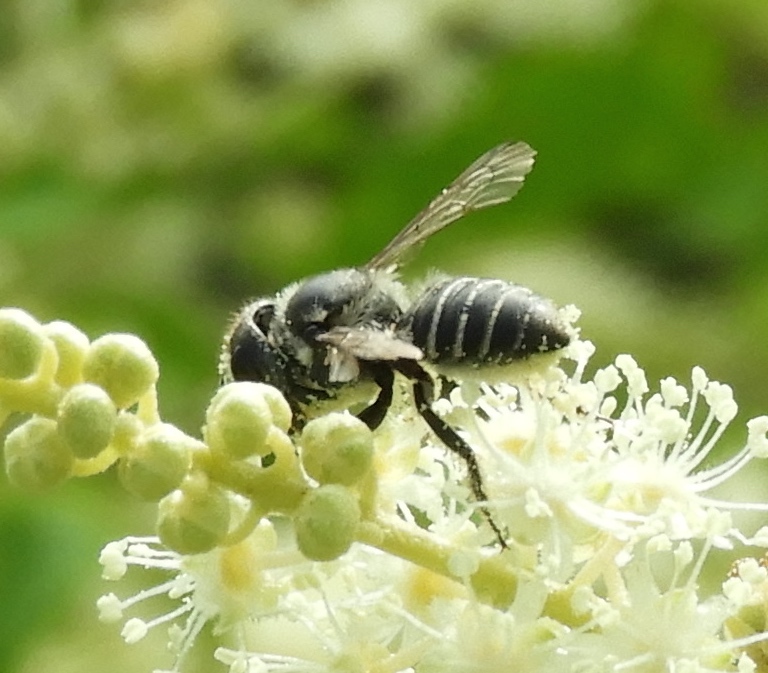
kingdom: Animalia
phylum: Arthropoda
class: Insecta
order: Hymenoptera
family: Megachilidae
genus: Megachile
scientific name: Megachile
